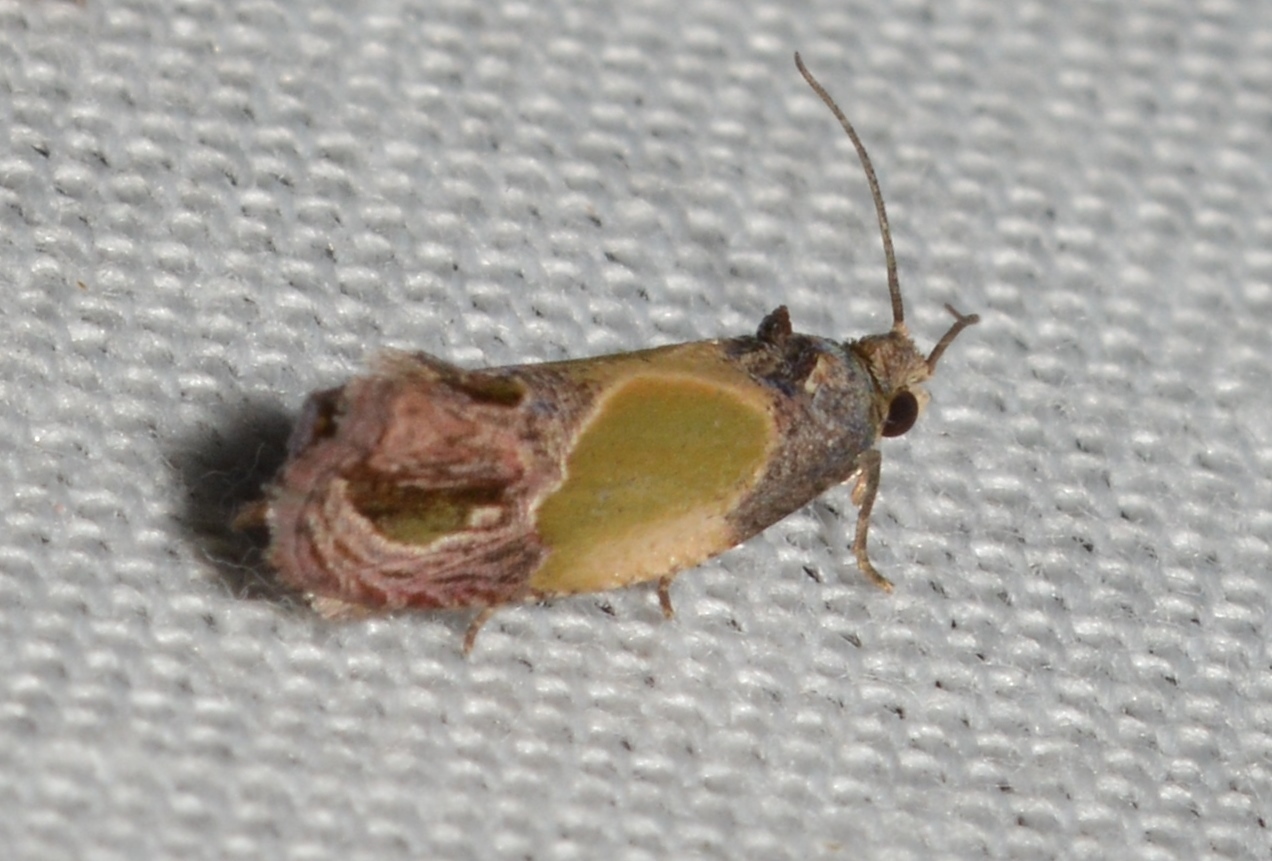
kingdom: Animalia
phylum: Arthropoda
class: Insecta
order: Lepidoptera
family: Tortricidae
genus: Eumarozia
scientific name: Eumarozia malachitana
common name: Sculptured moth
